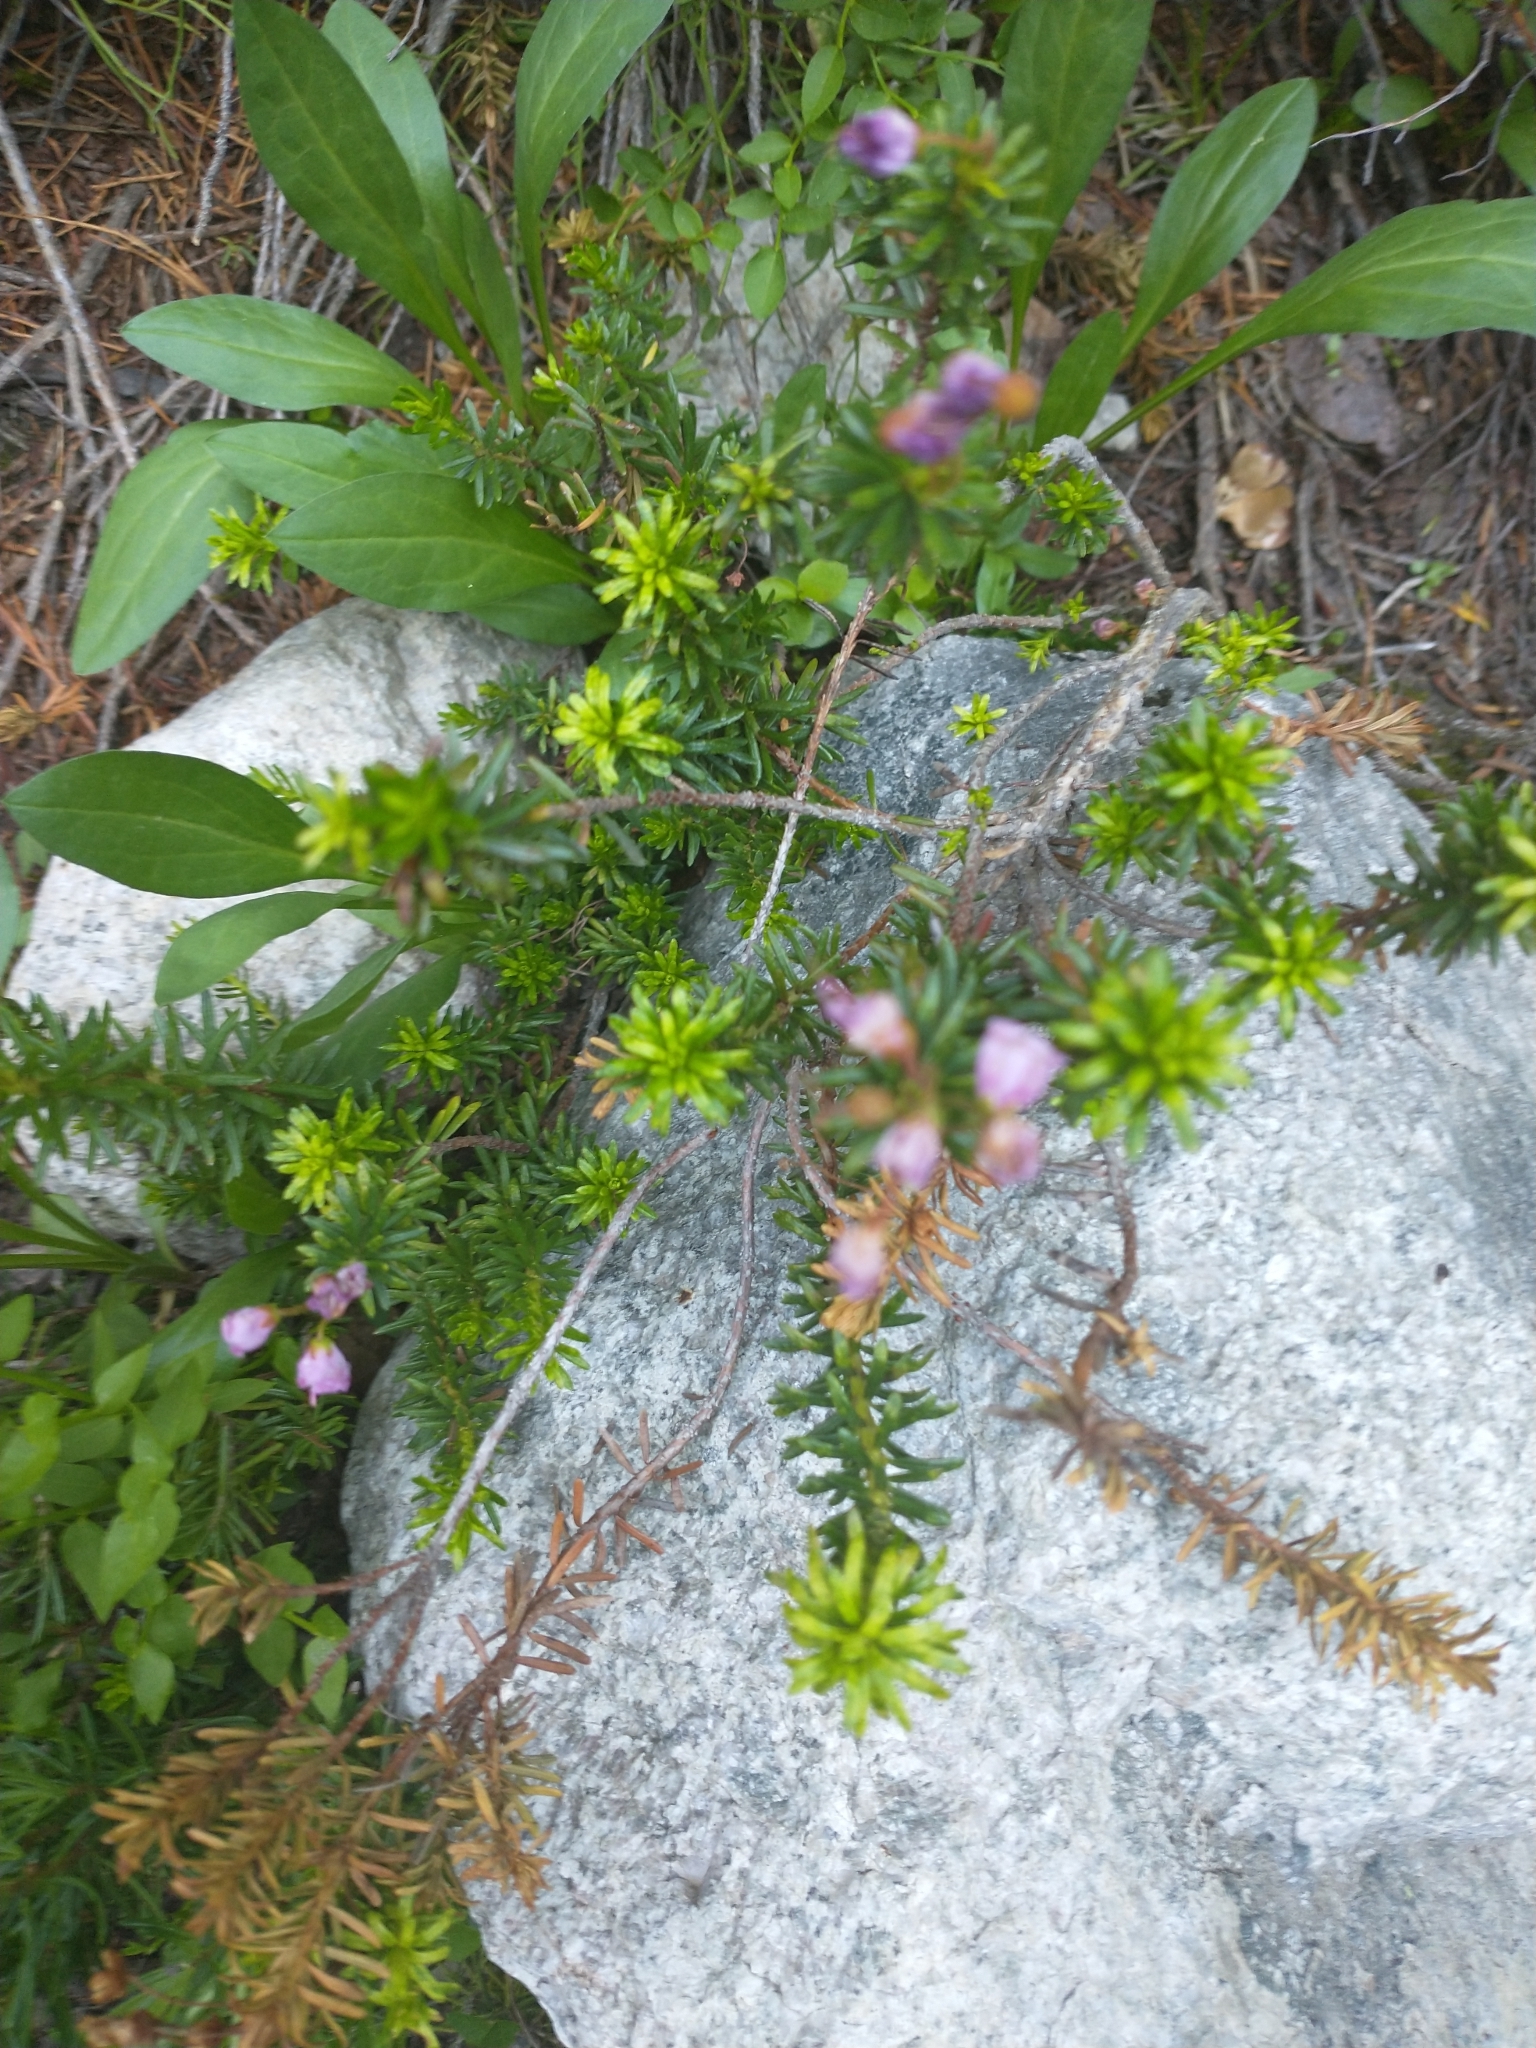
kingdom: Plantae
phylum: Tracheophyta
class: Magnoliopsida
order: Ericales
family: Ericaceae
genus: Phyllodoce
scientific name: Phyllodoce empetriformis
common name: Pink mountain heather
